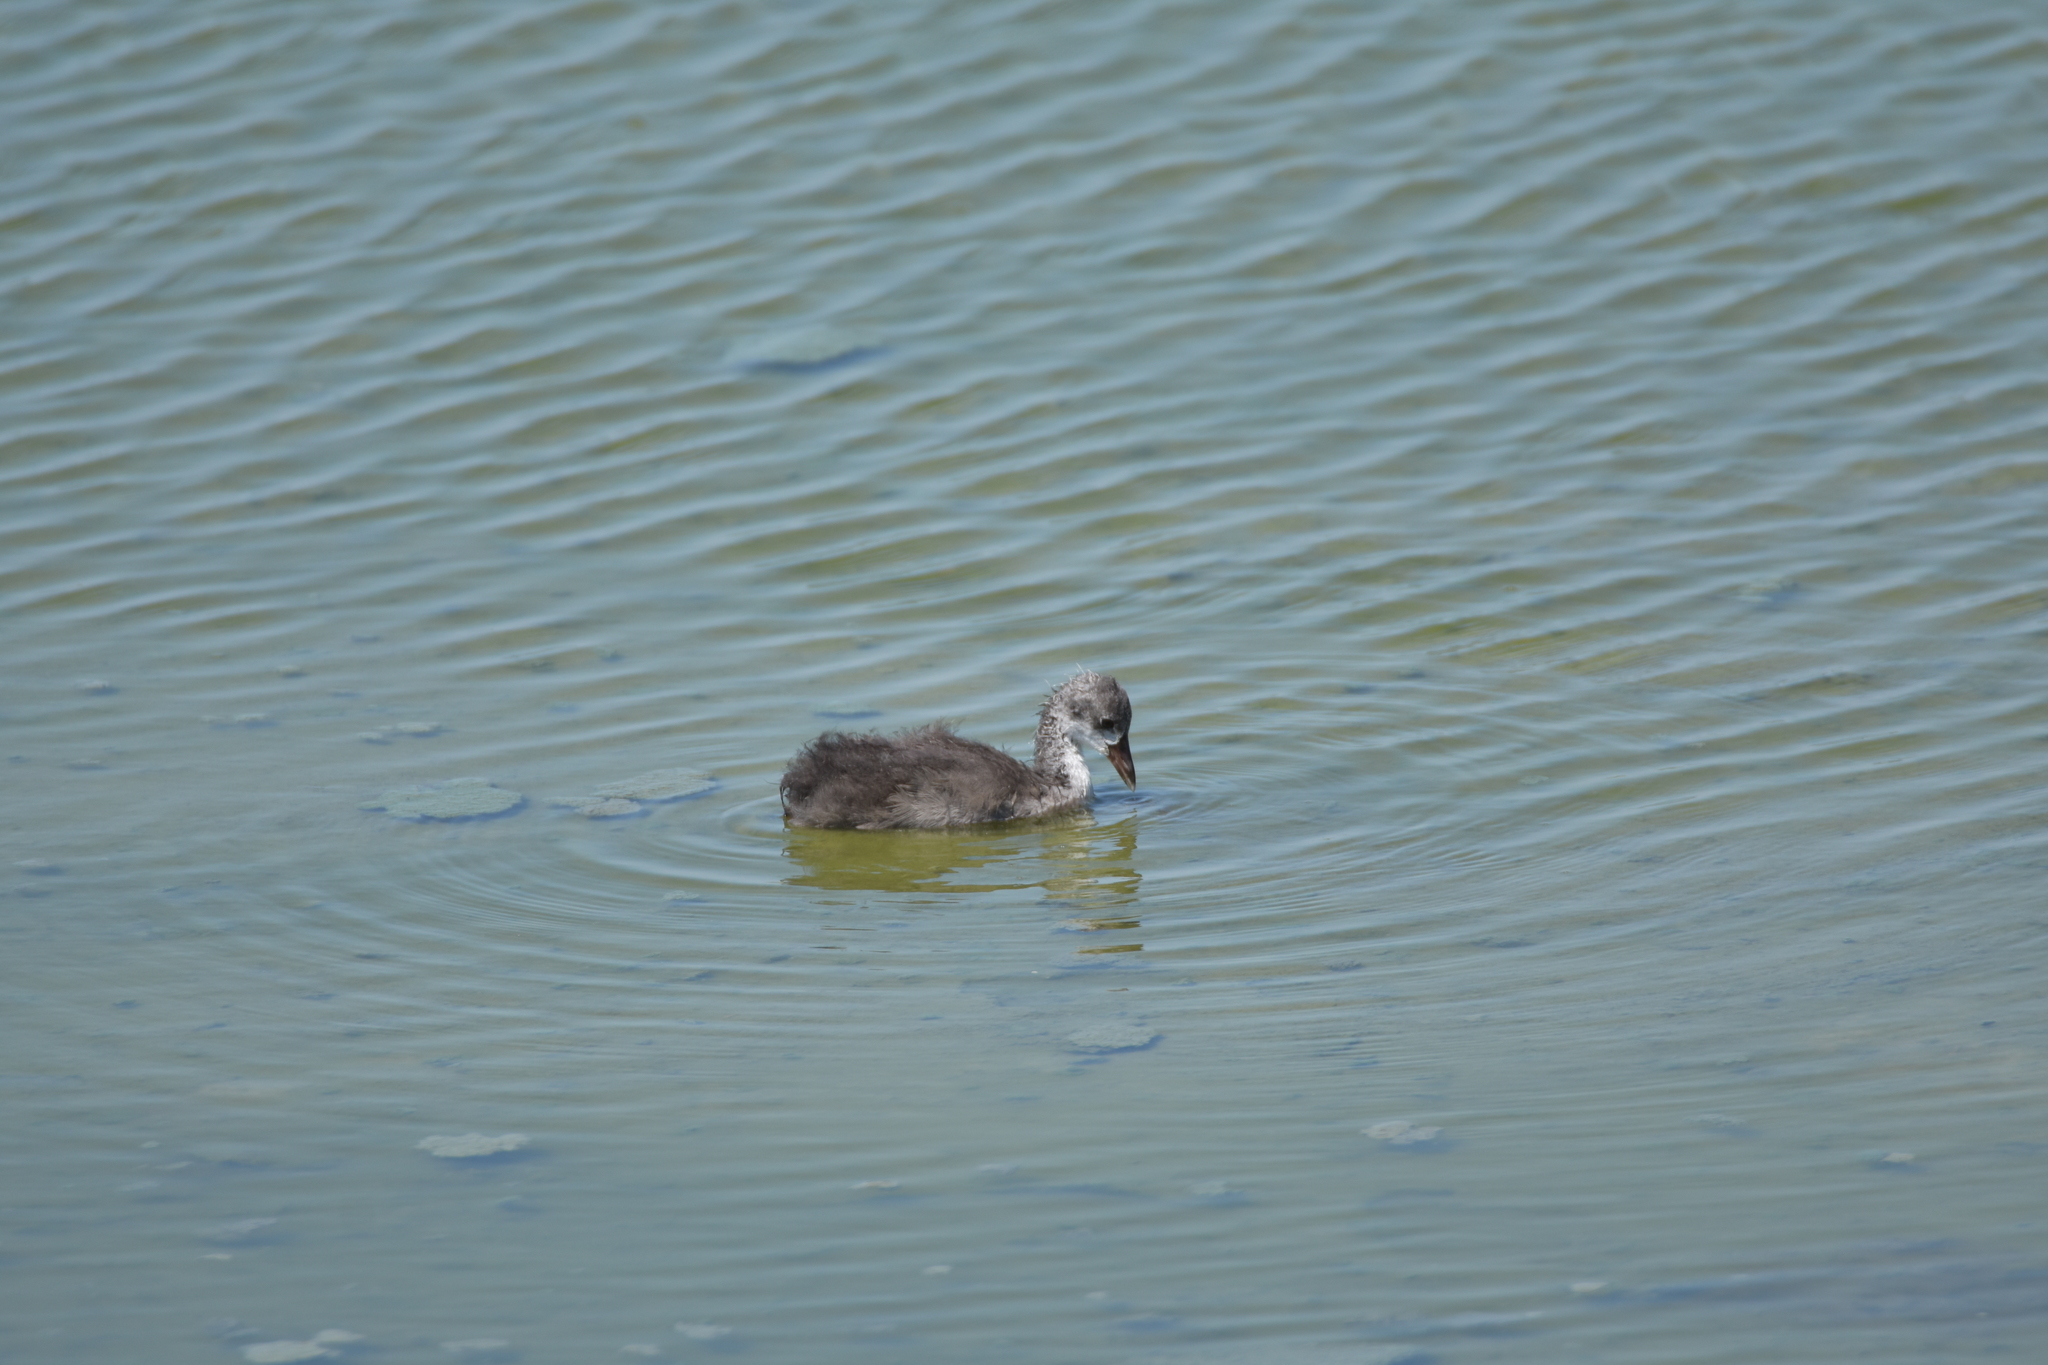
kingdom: Animalia
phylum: Chordata
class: Aves
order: Gruiformes
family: Rallidae
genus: Fulica
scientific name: Fulica americana
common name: American coot
